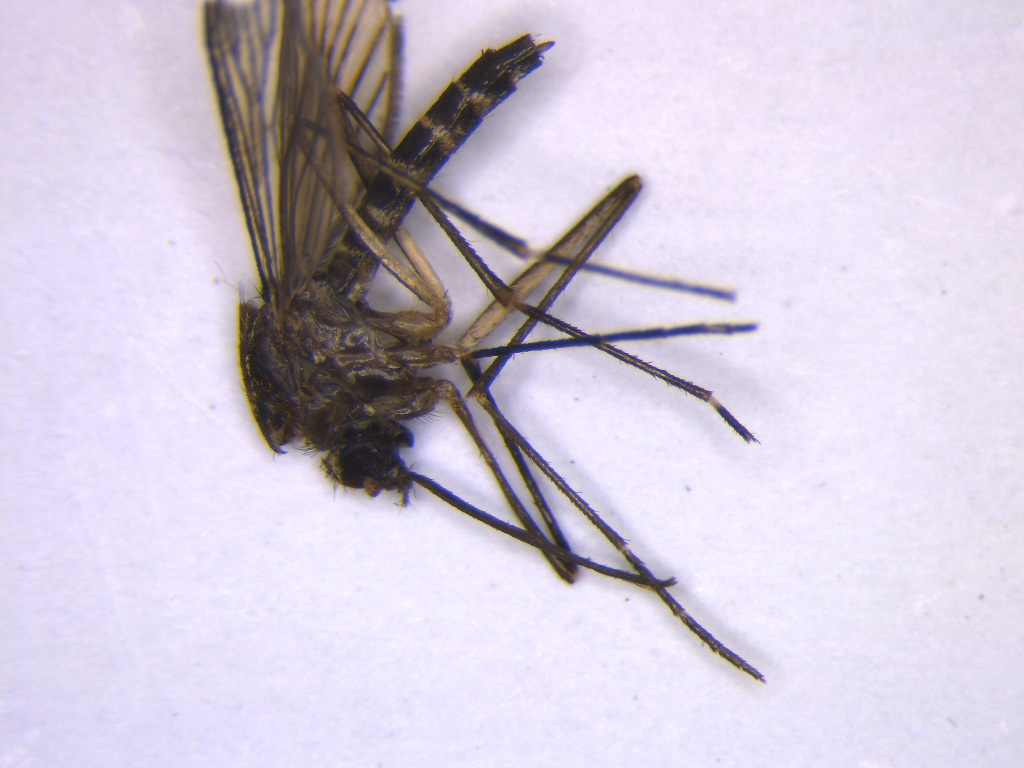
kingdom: Animalia
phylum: Arthropoda
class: Insecta
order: Diptera
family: Culicidae
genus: Aedes
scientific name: Aedes antipodeus
